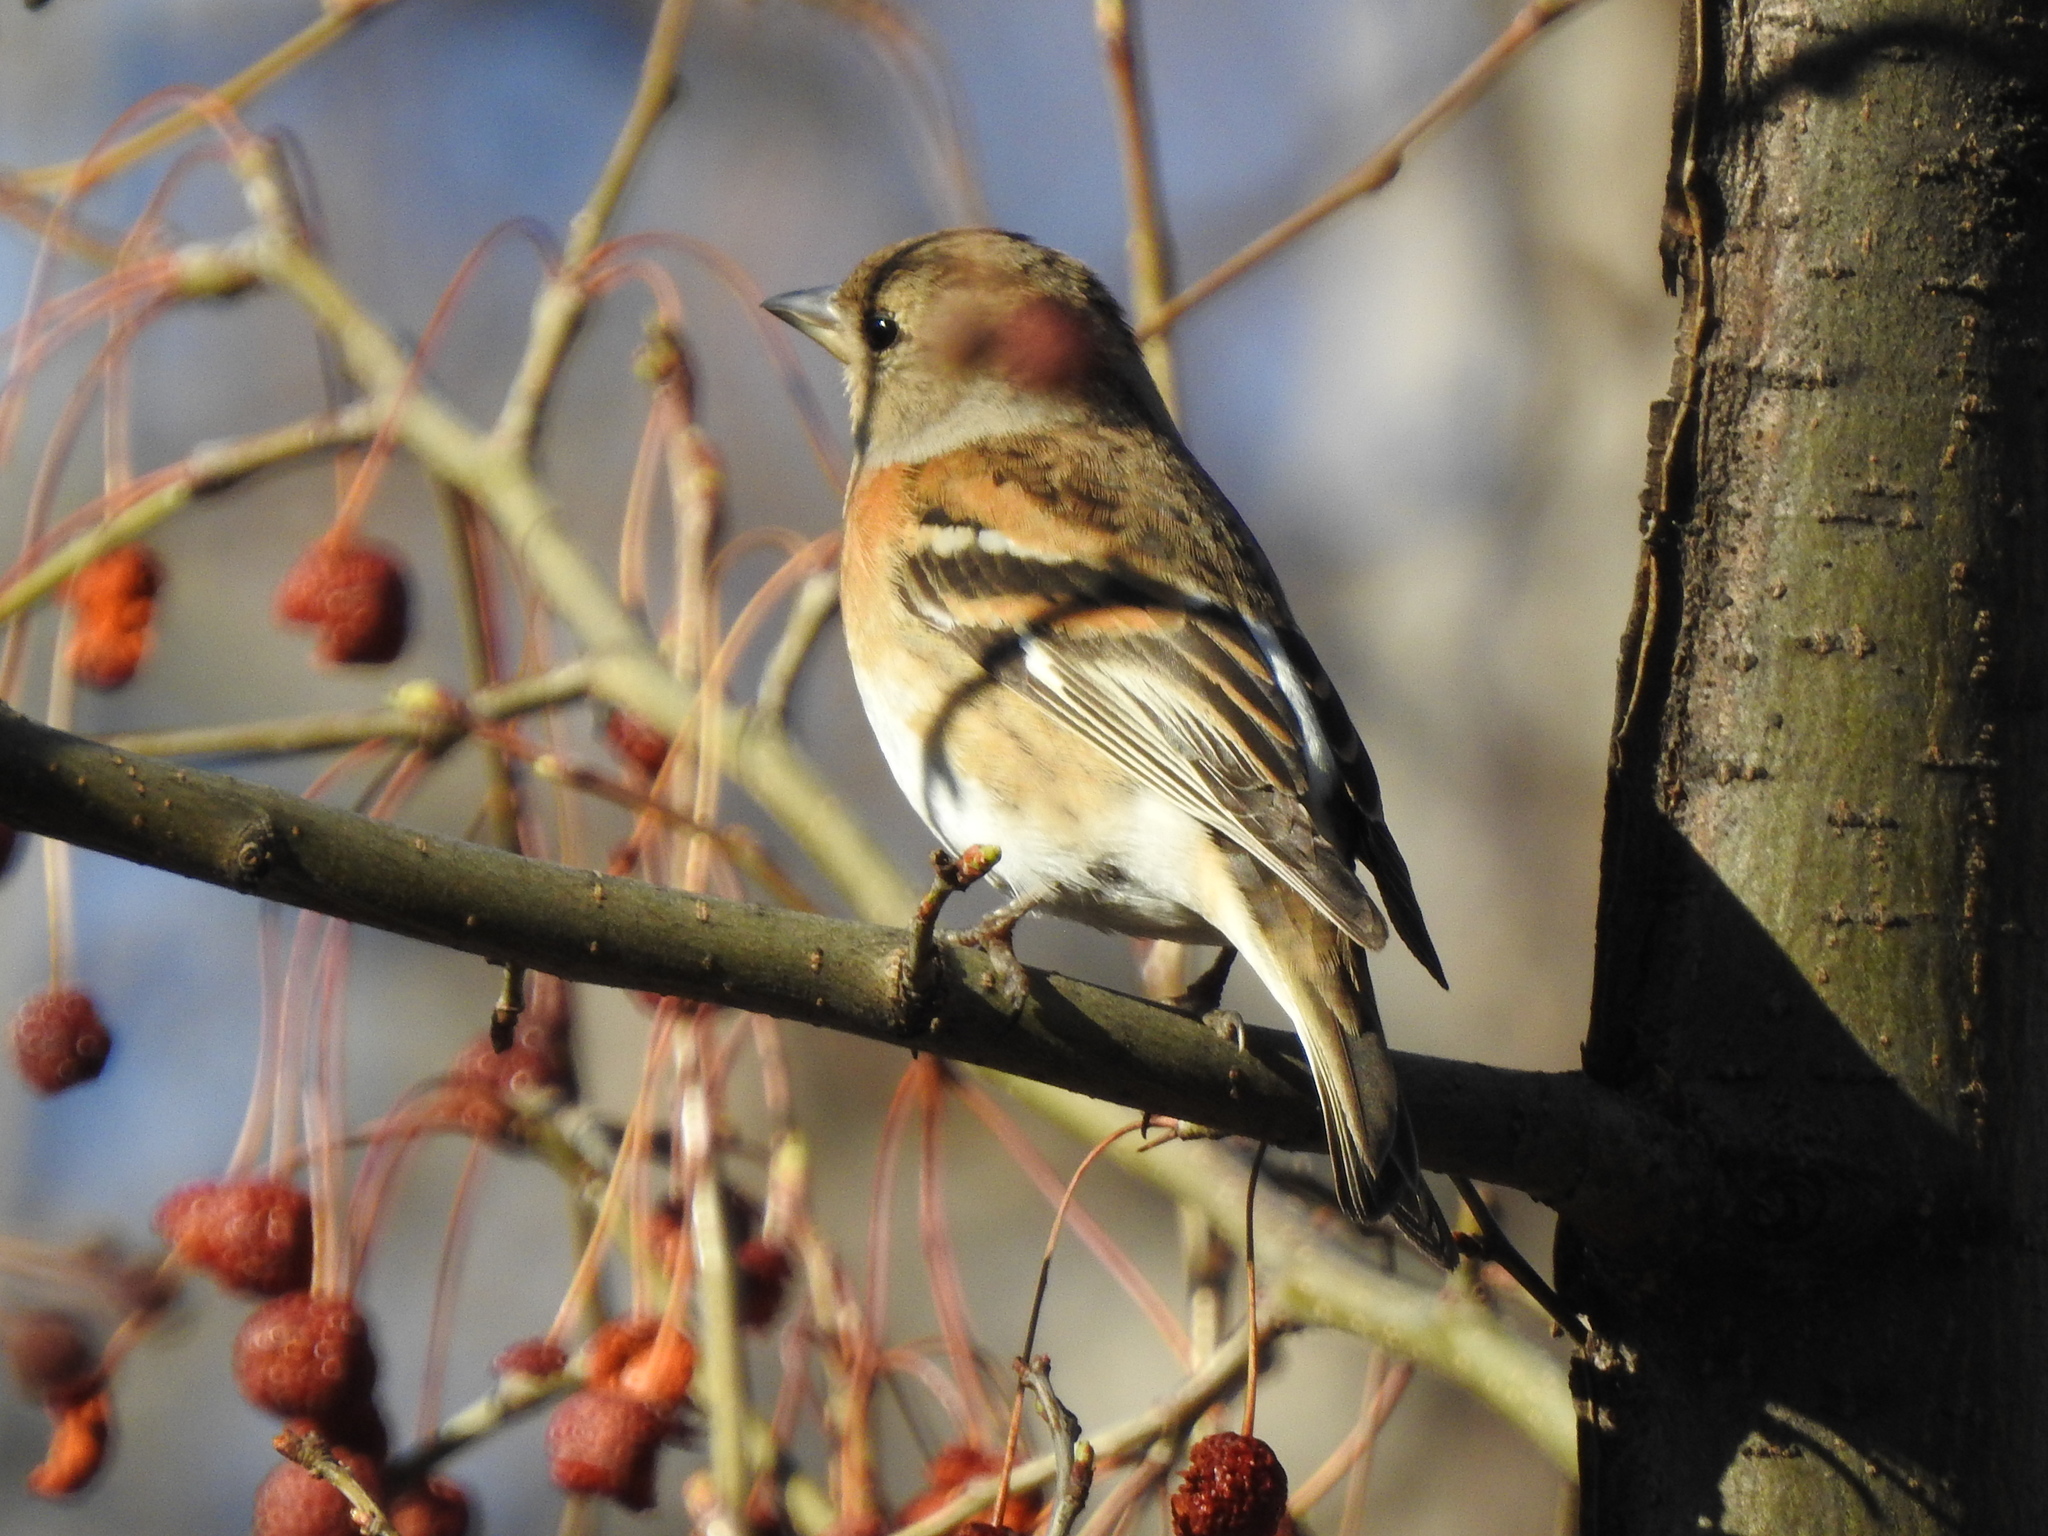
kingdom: Animalia
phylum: Chordata
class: Aves
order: Passeriformes
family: Fringillidae
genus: Fringilla
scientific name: Fringilla montifringilla
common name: Brambling
